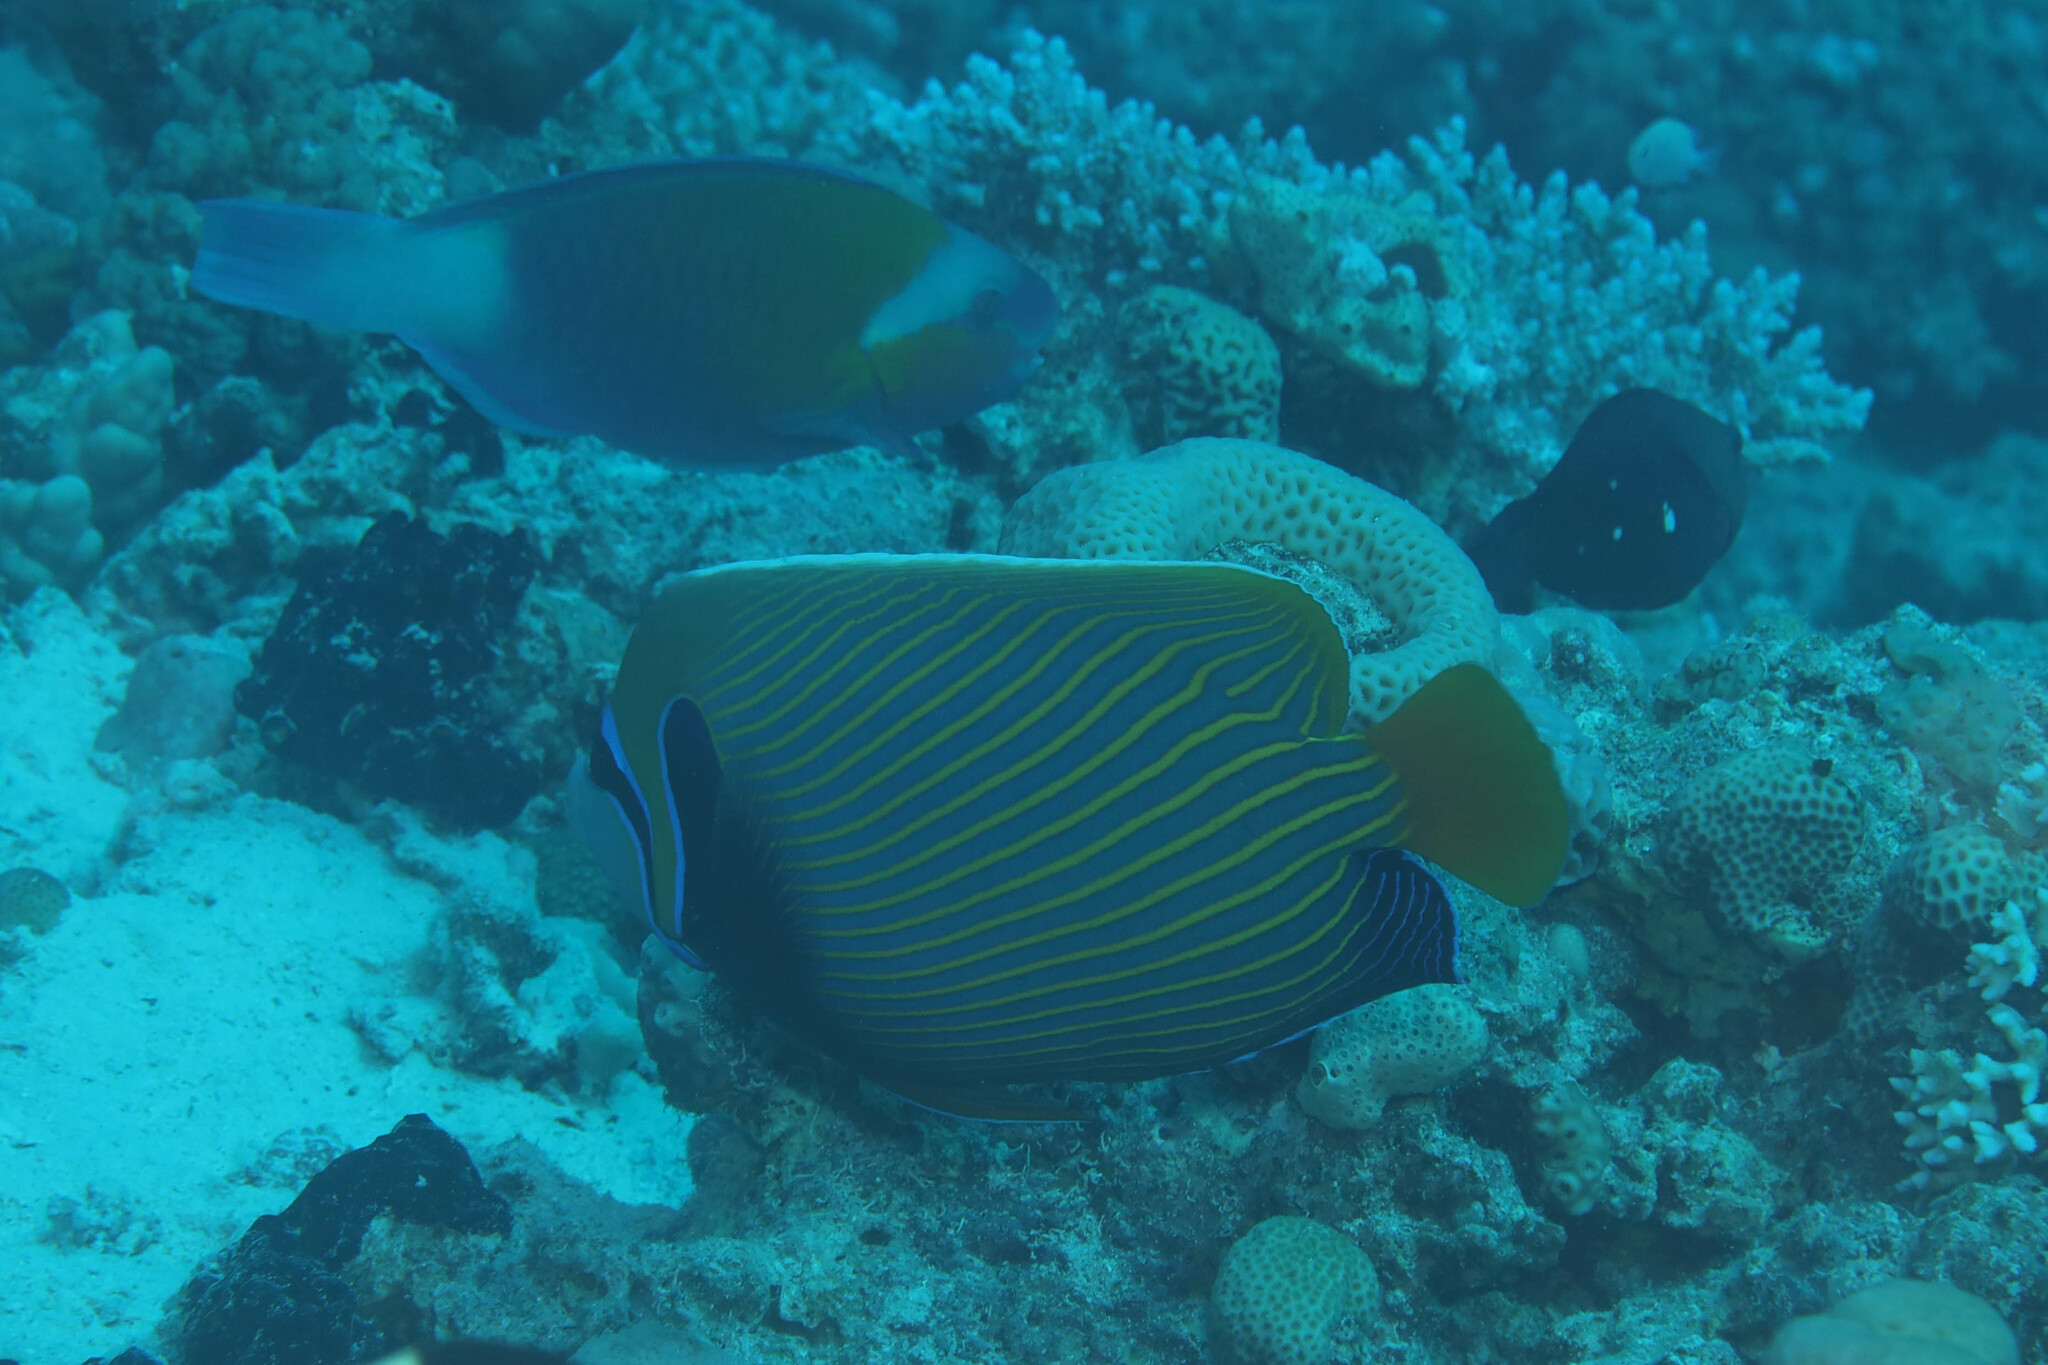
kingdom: Animalia
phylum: Chordata
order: Perciformes
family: Pomacanthidae
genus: Pomacanthus
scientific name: Pomacanthus imperator
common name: Emperor angelfish
